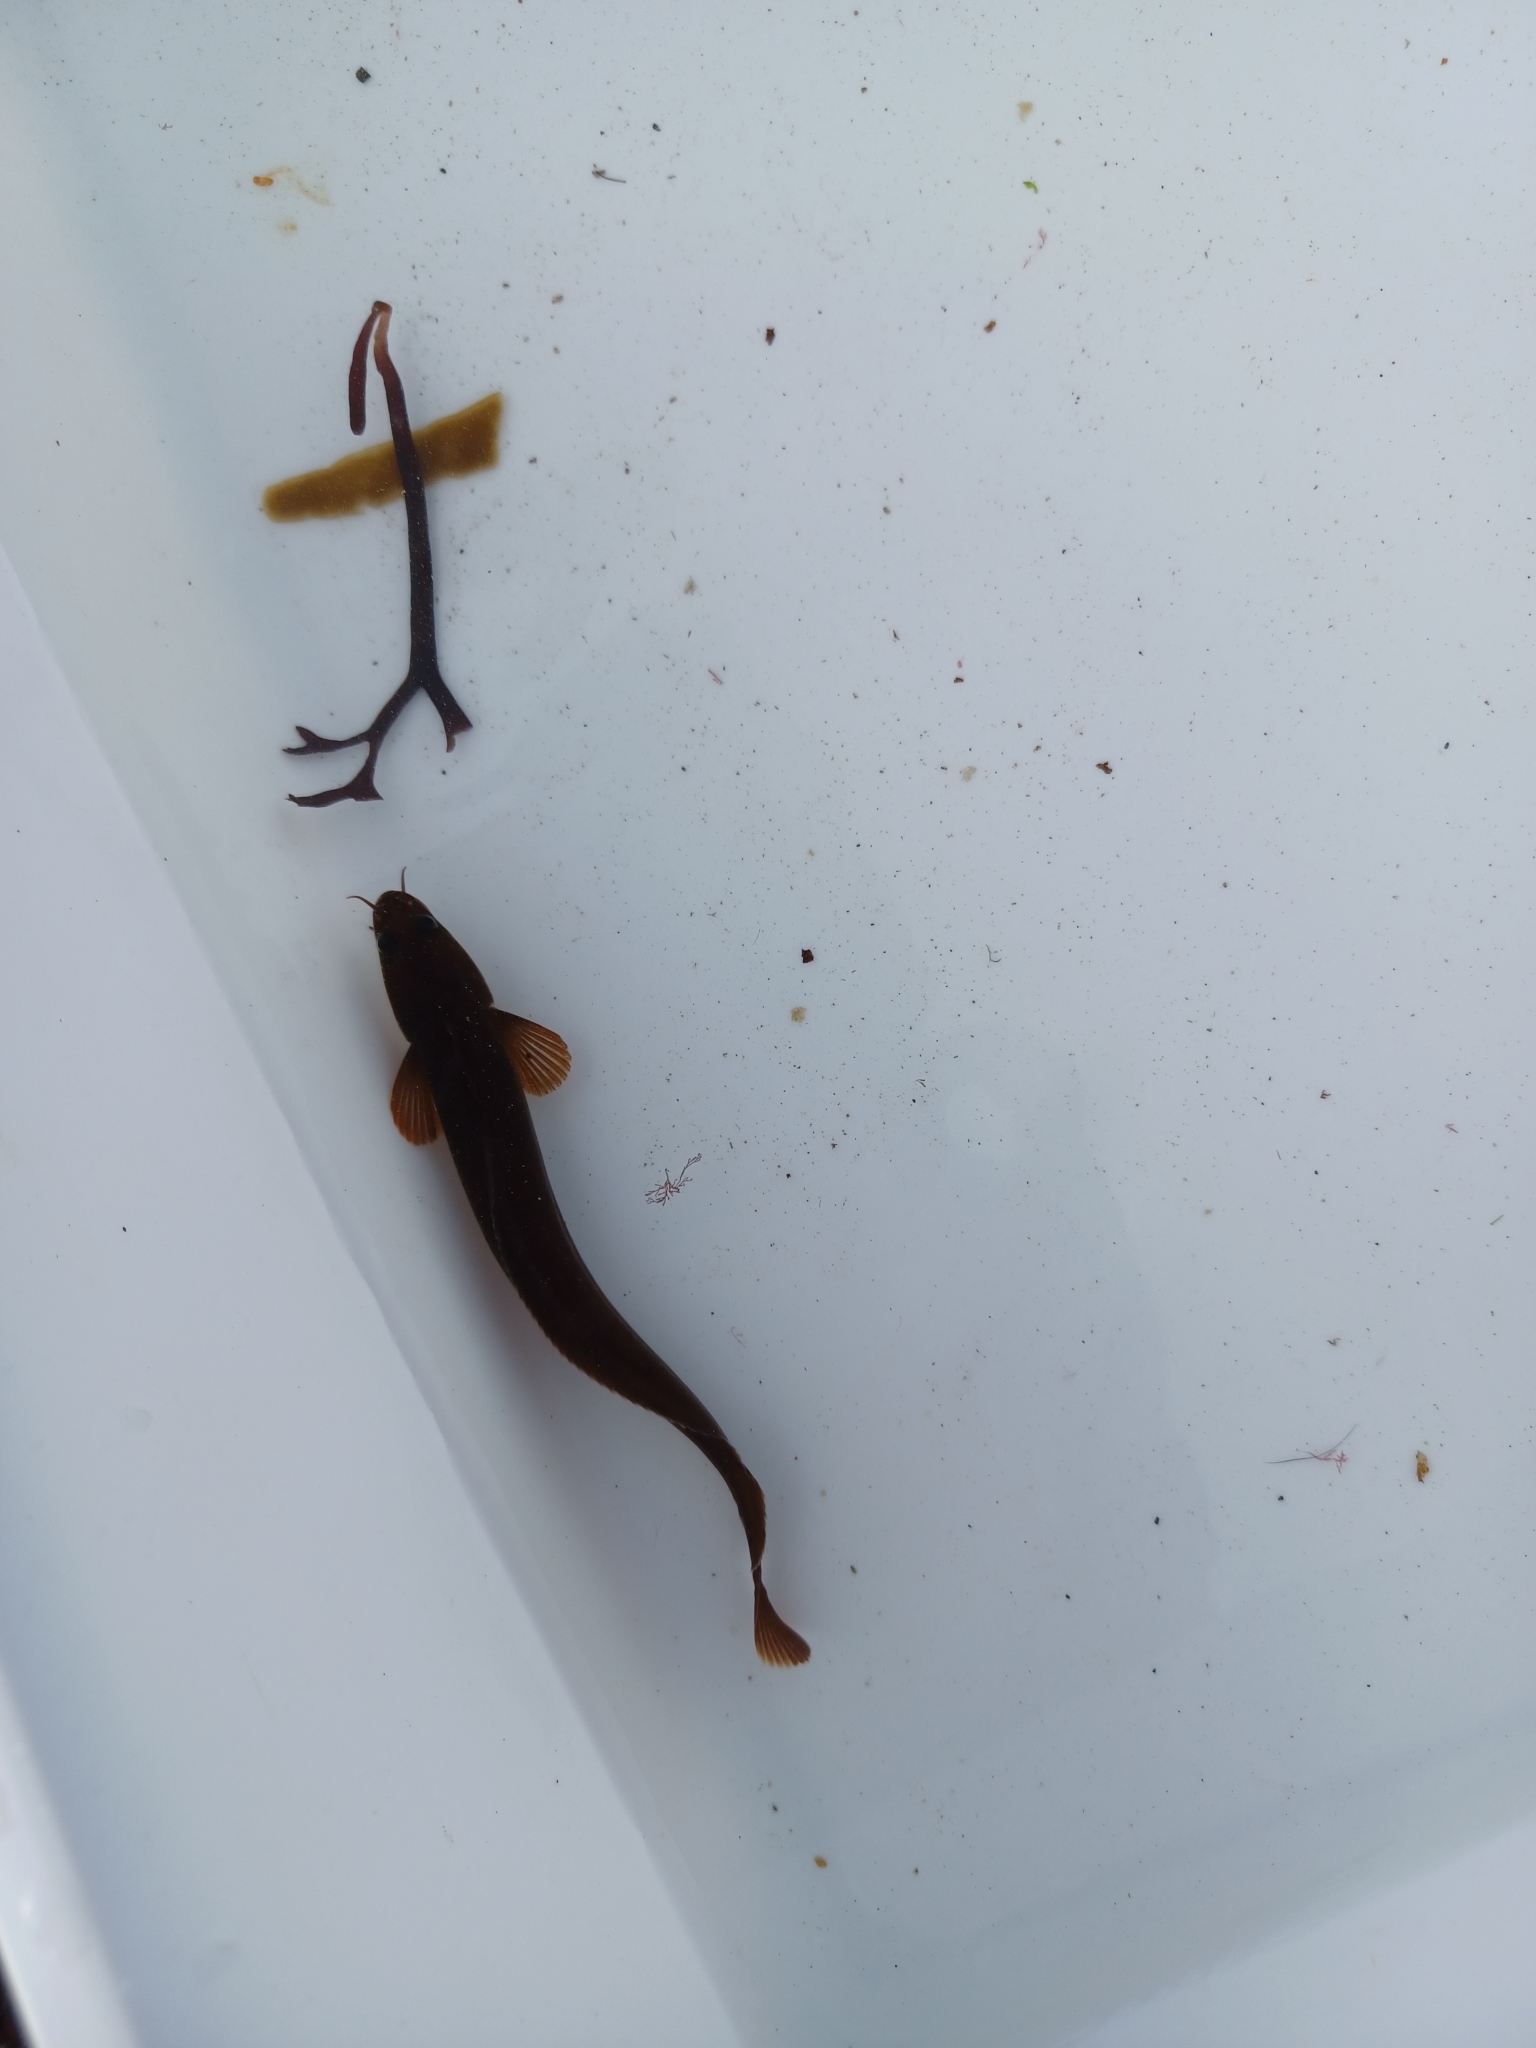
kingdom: Animalia
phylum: Chordata
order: Gadiformes
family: Lotidae
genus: Gaidropsarus
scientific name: Gaidropsarus mediterraneus
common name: Shore rockling
